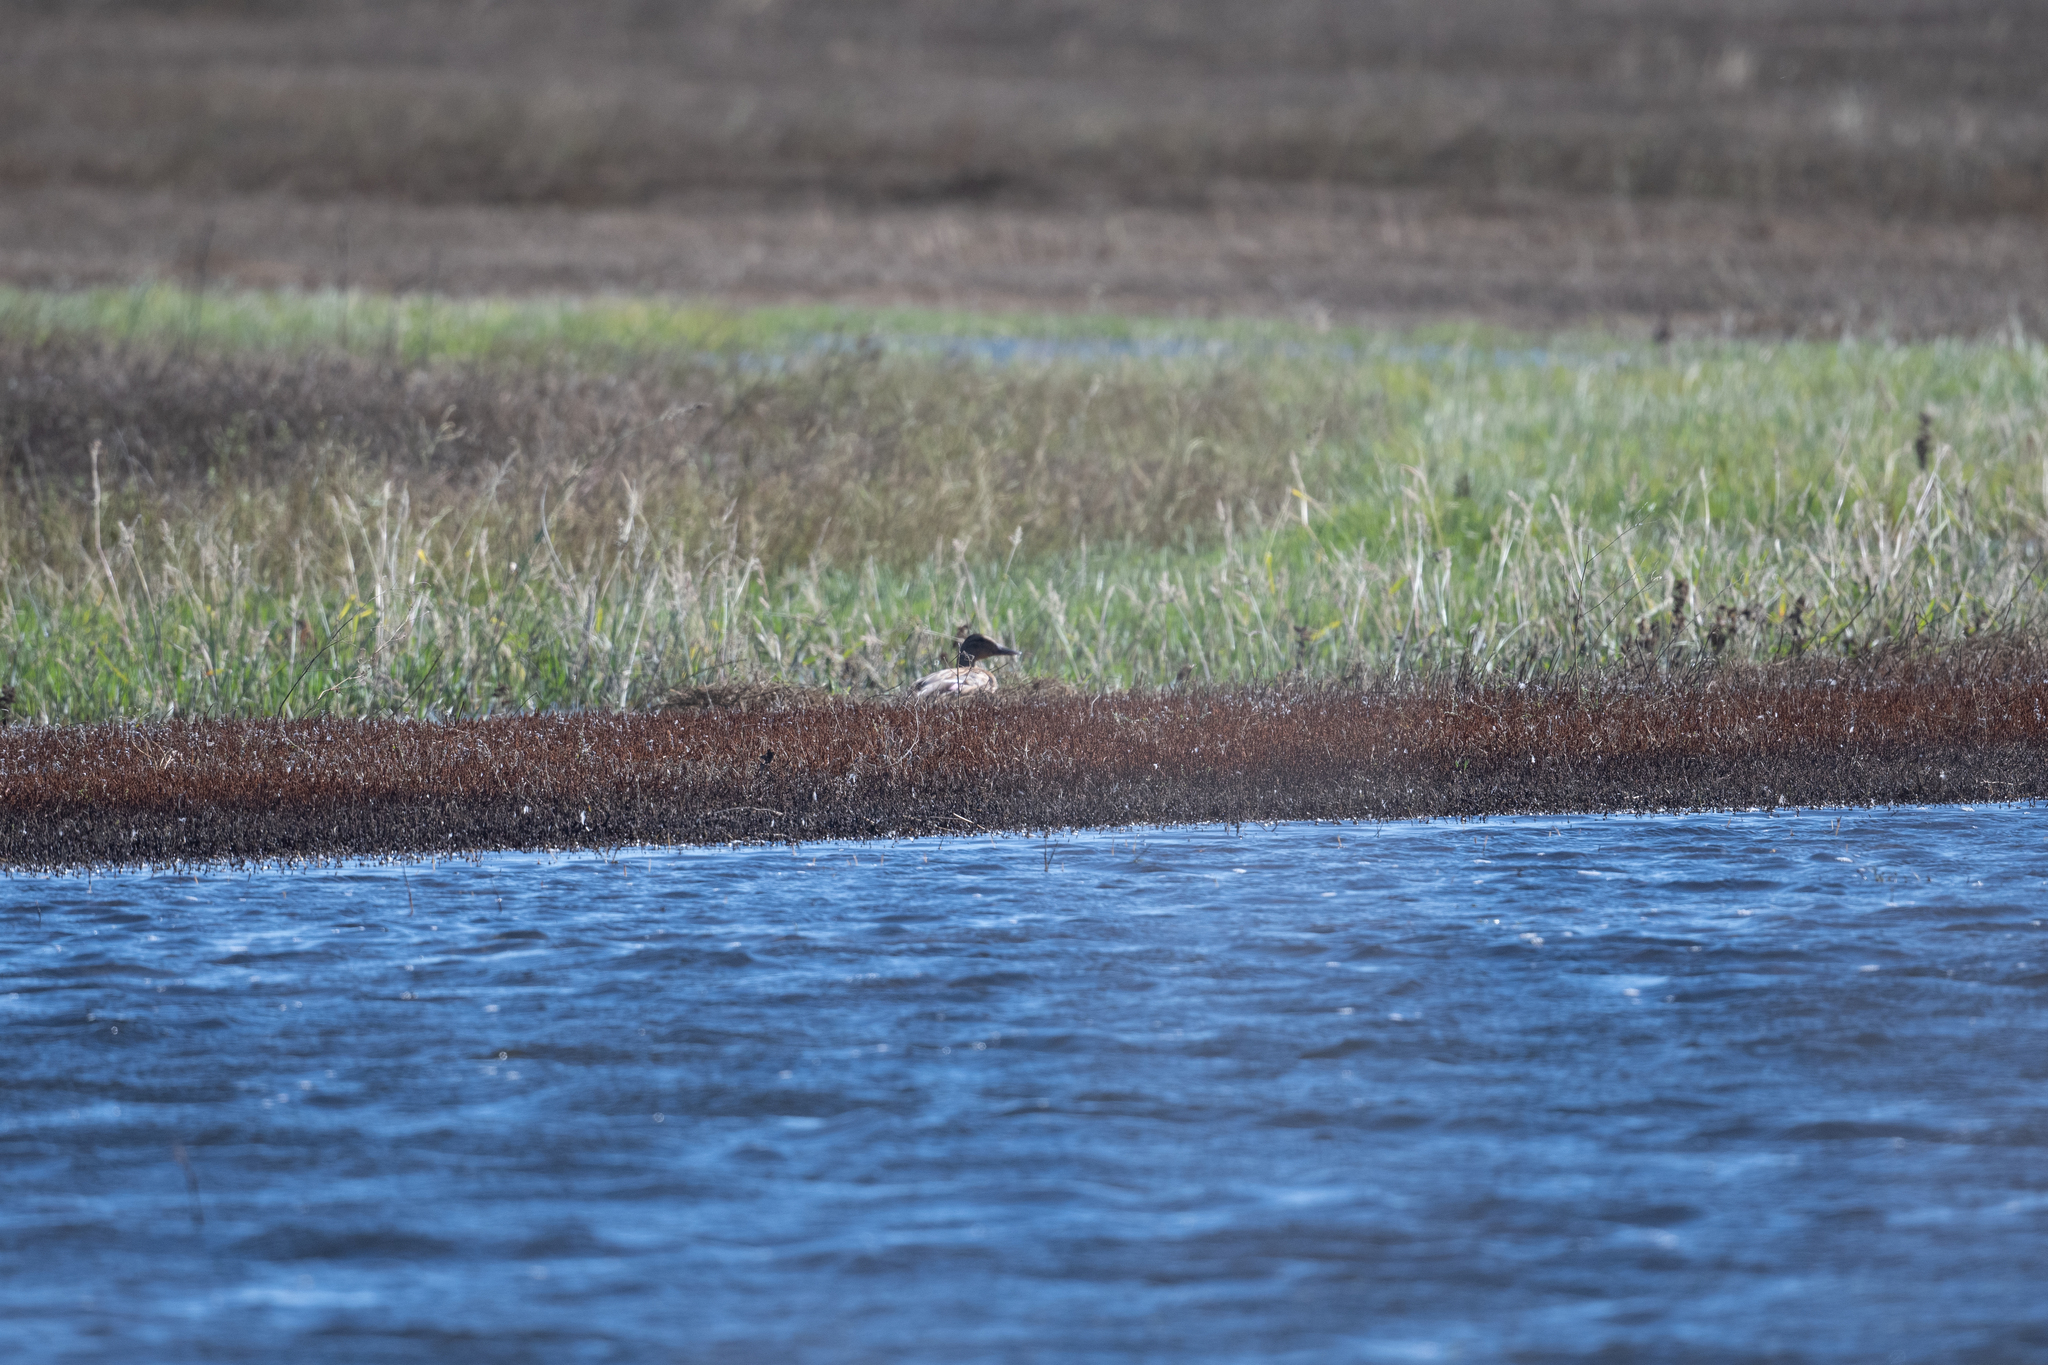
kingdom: Animalia
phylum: Chordata
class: Aves
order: Anseriformes
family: Anatidae
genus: Anas
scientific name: Anas platyrhynchos
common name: Mallard
